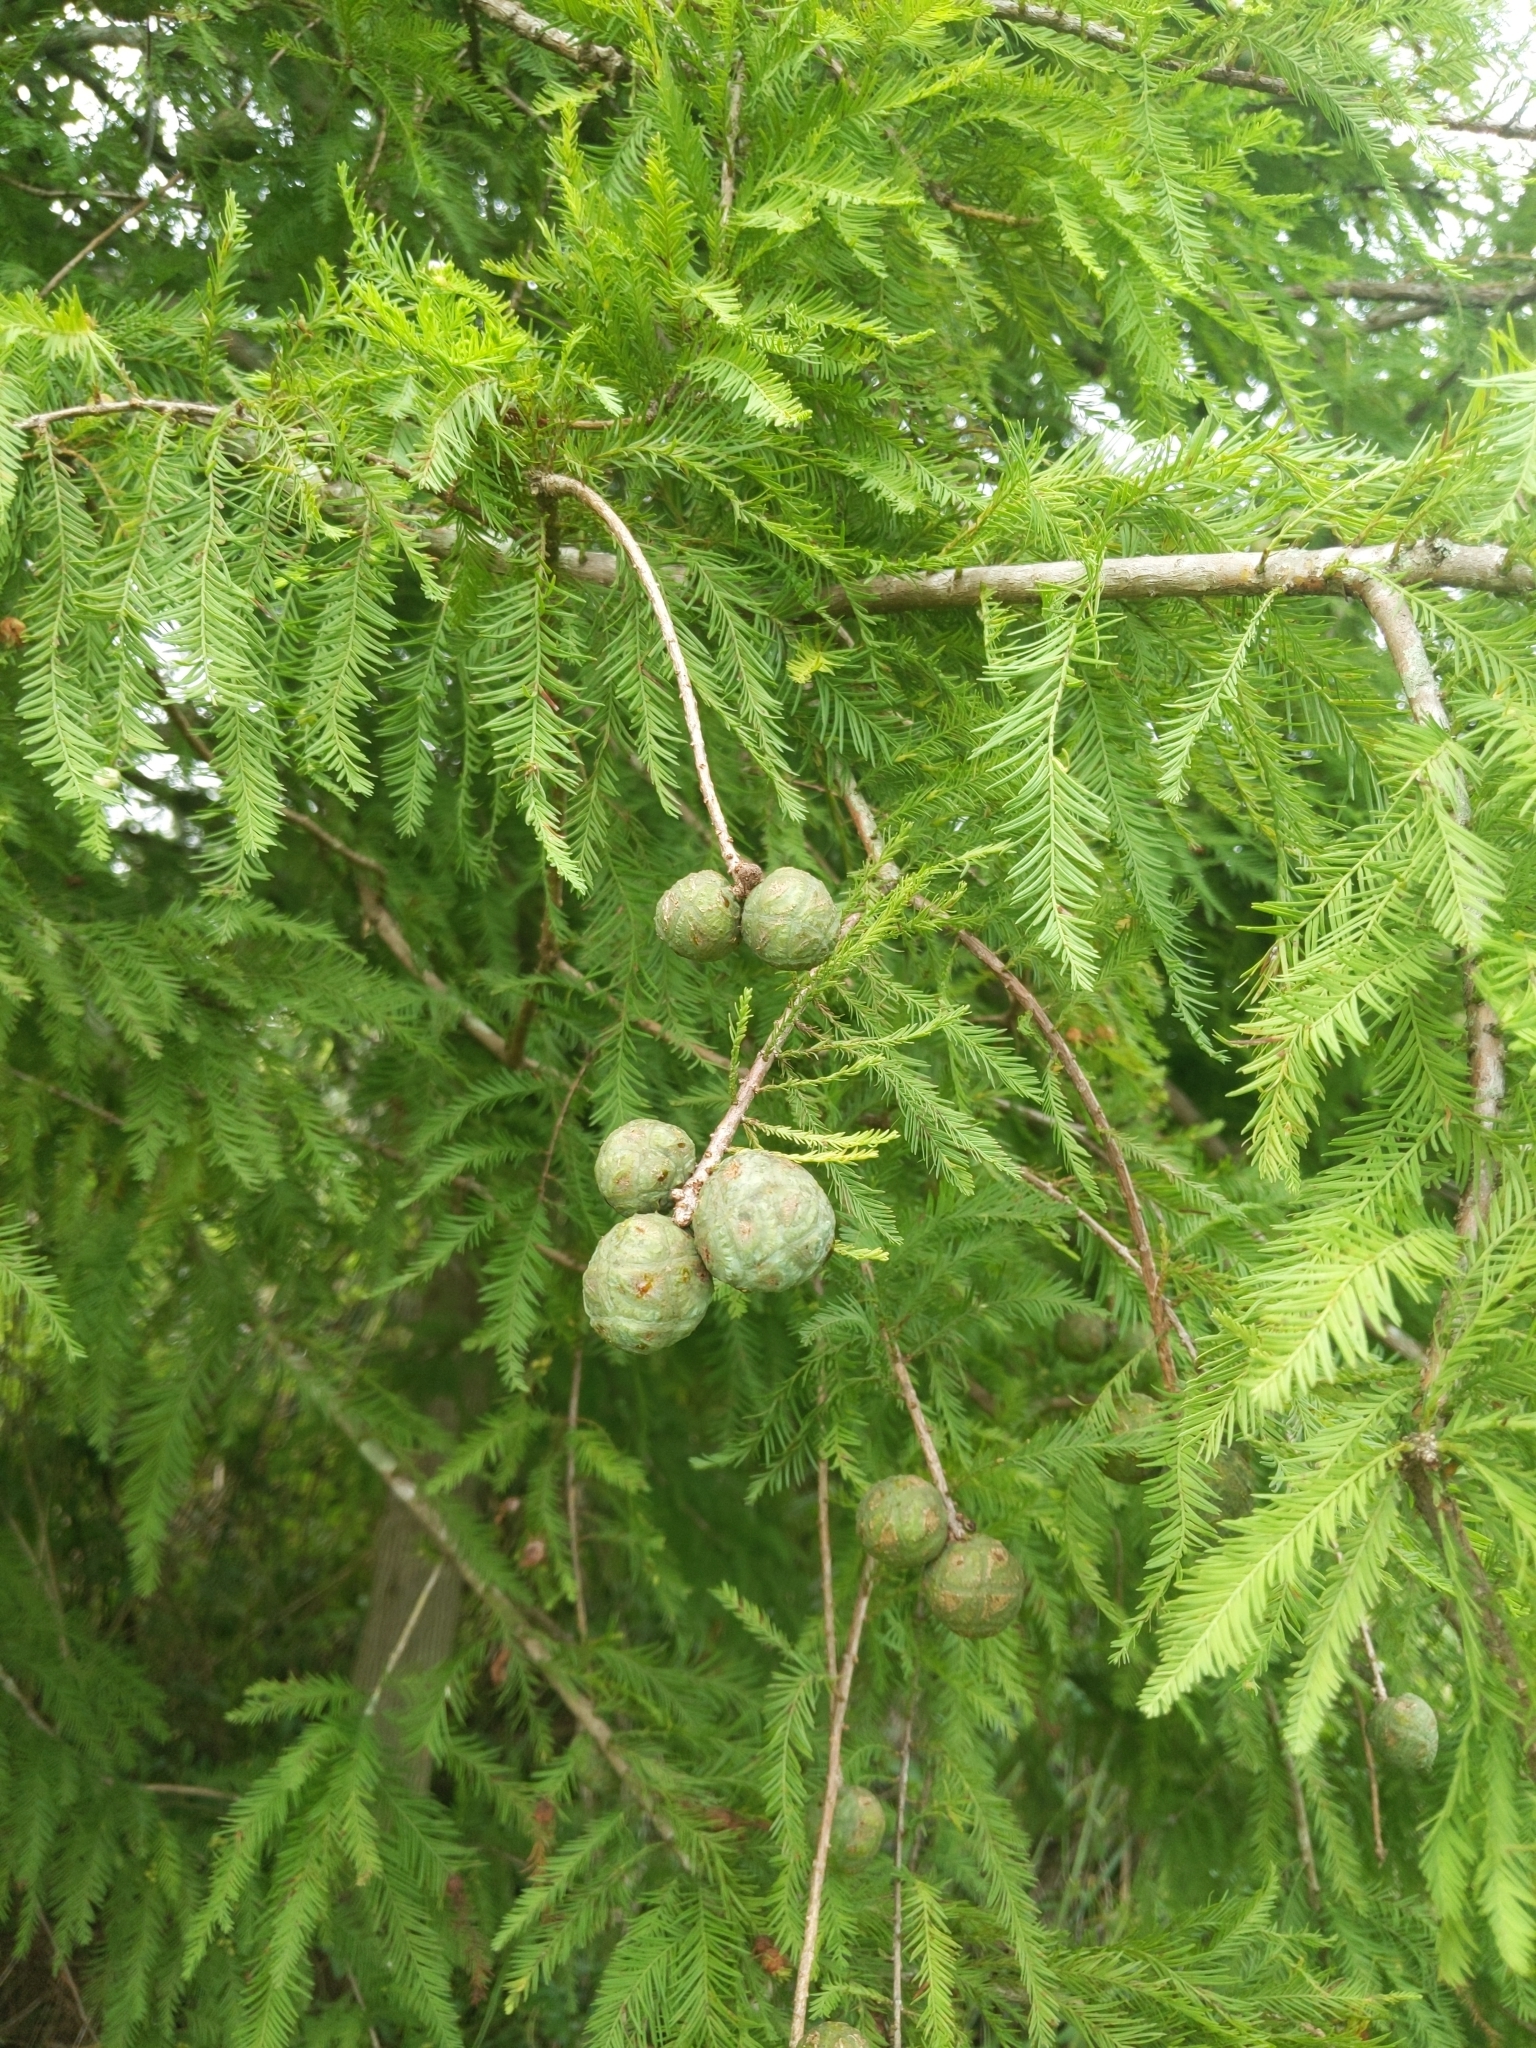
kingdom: Plantae
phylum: Tracheophyta
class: Pinopsida
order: Pinales
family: Cupressaceae
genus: Taxodium
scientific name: Taxodium distichum
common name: Bald cypress
